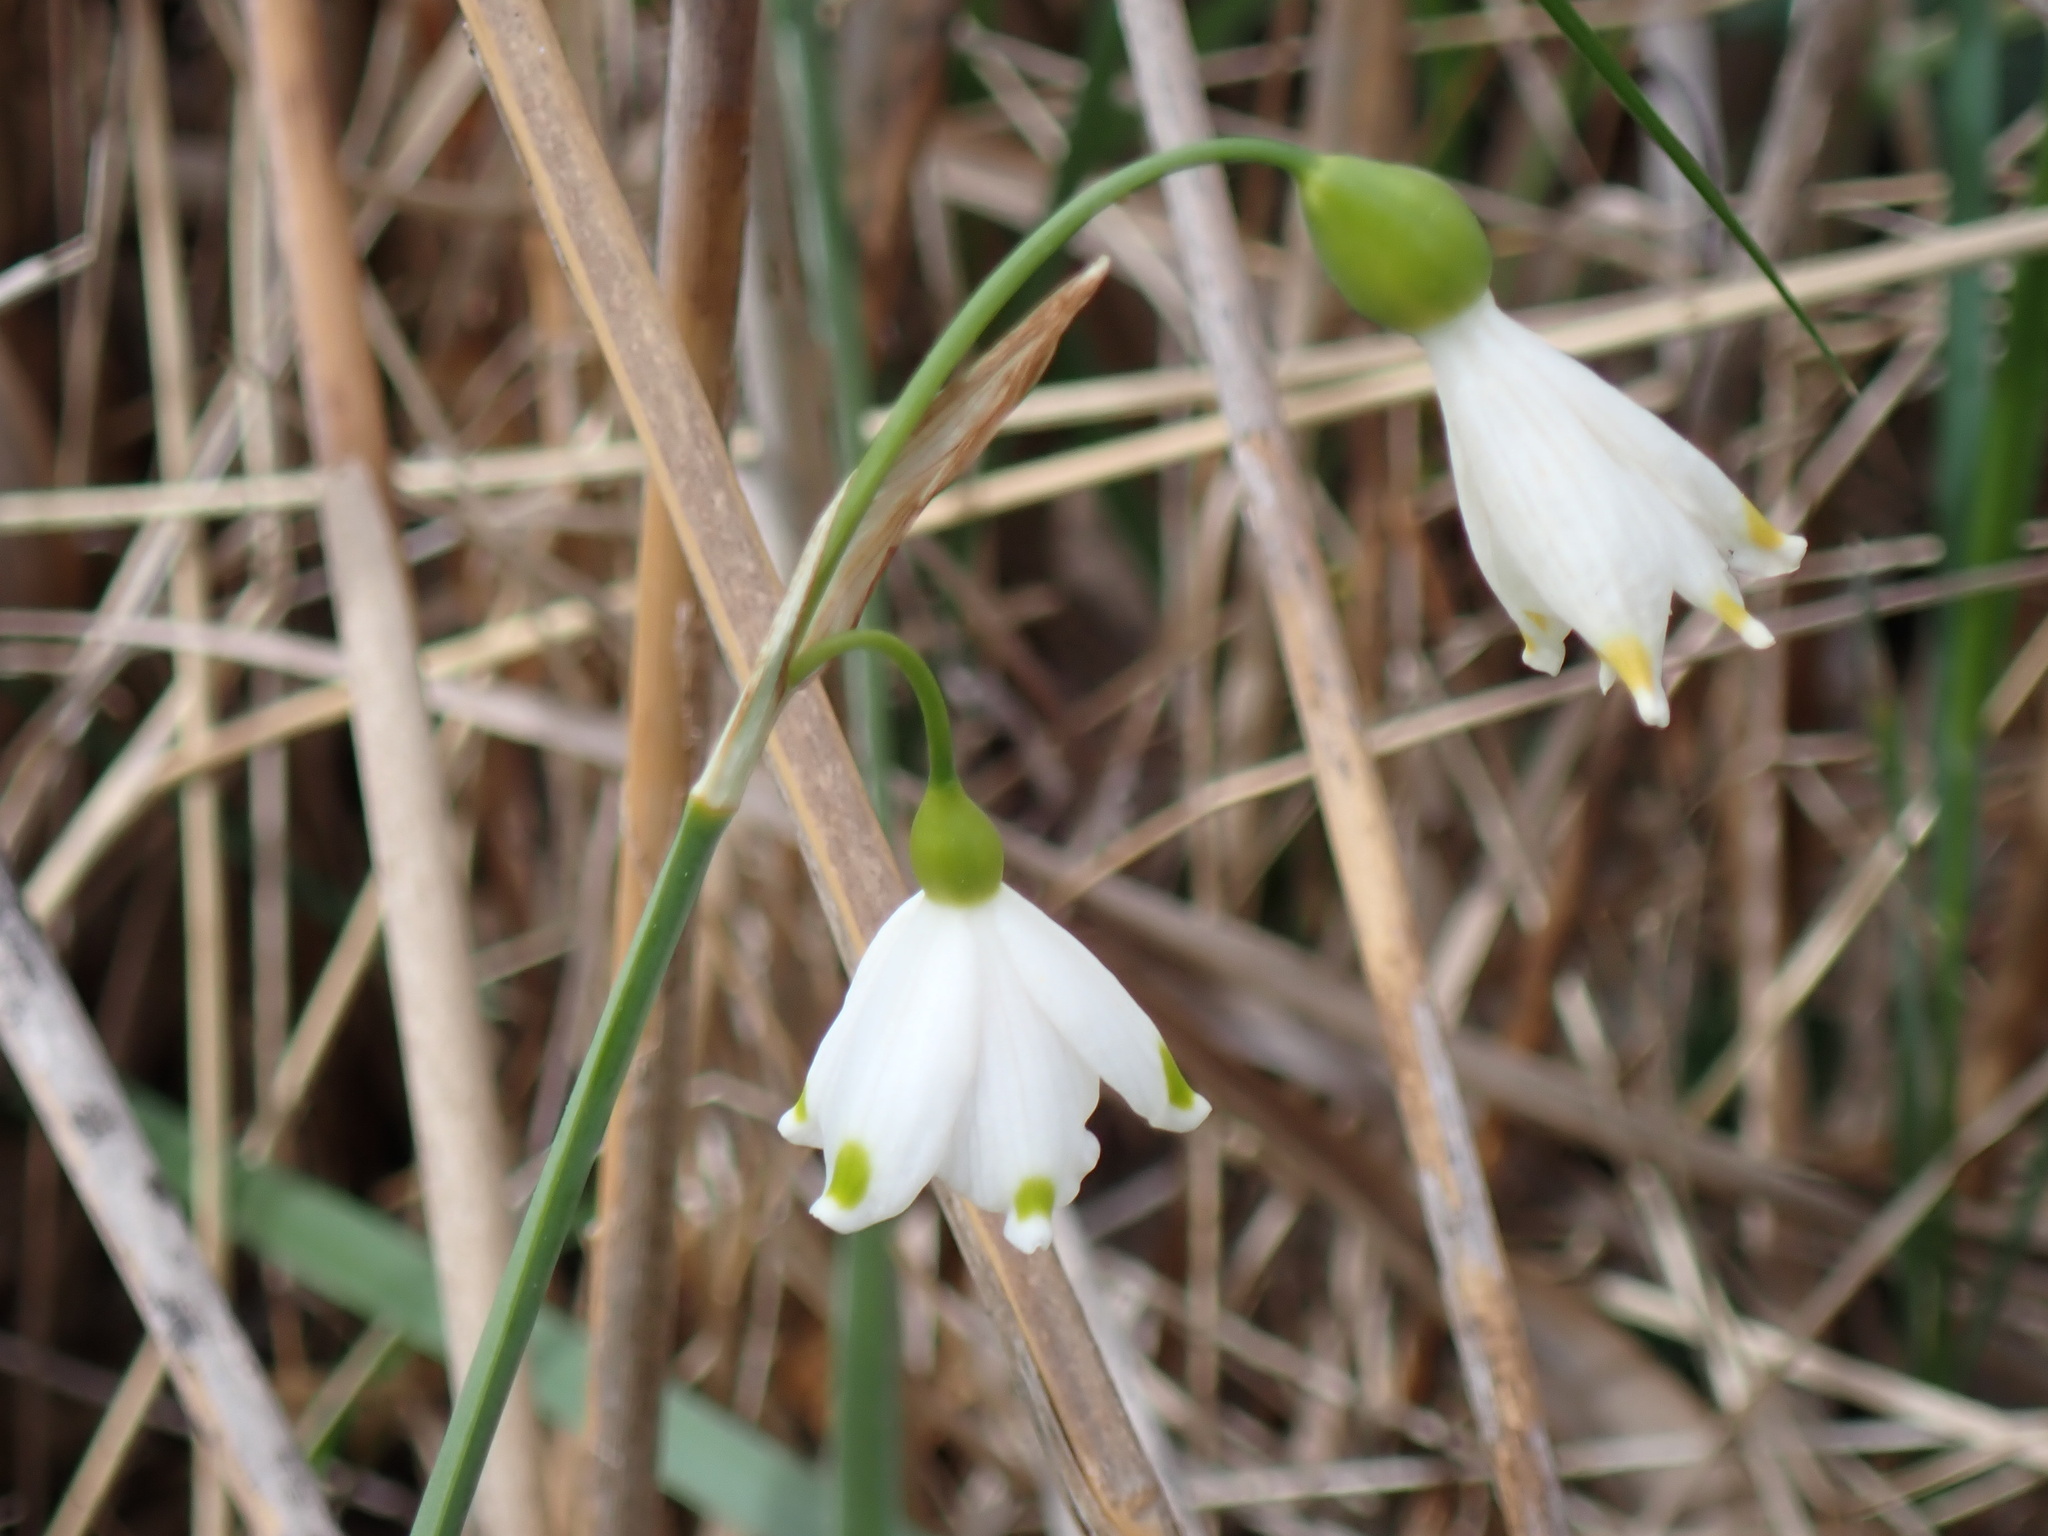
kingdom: Plantae
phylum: Tracheophyta
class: Liliopsida
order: Asparagales
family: Amaryllidaceae
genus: Leucojum
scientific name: Leucojum aestivum
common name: Summer snowflake
